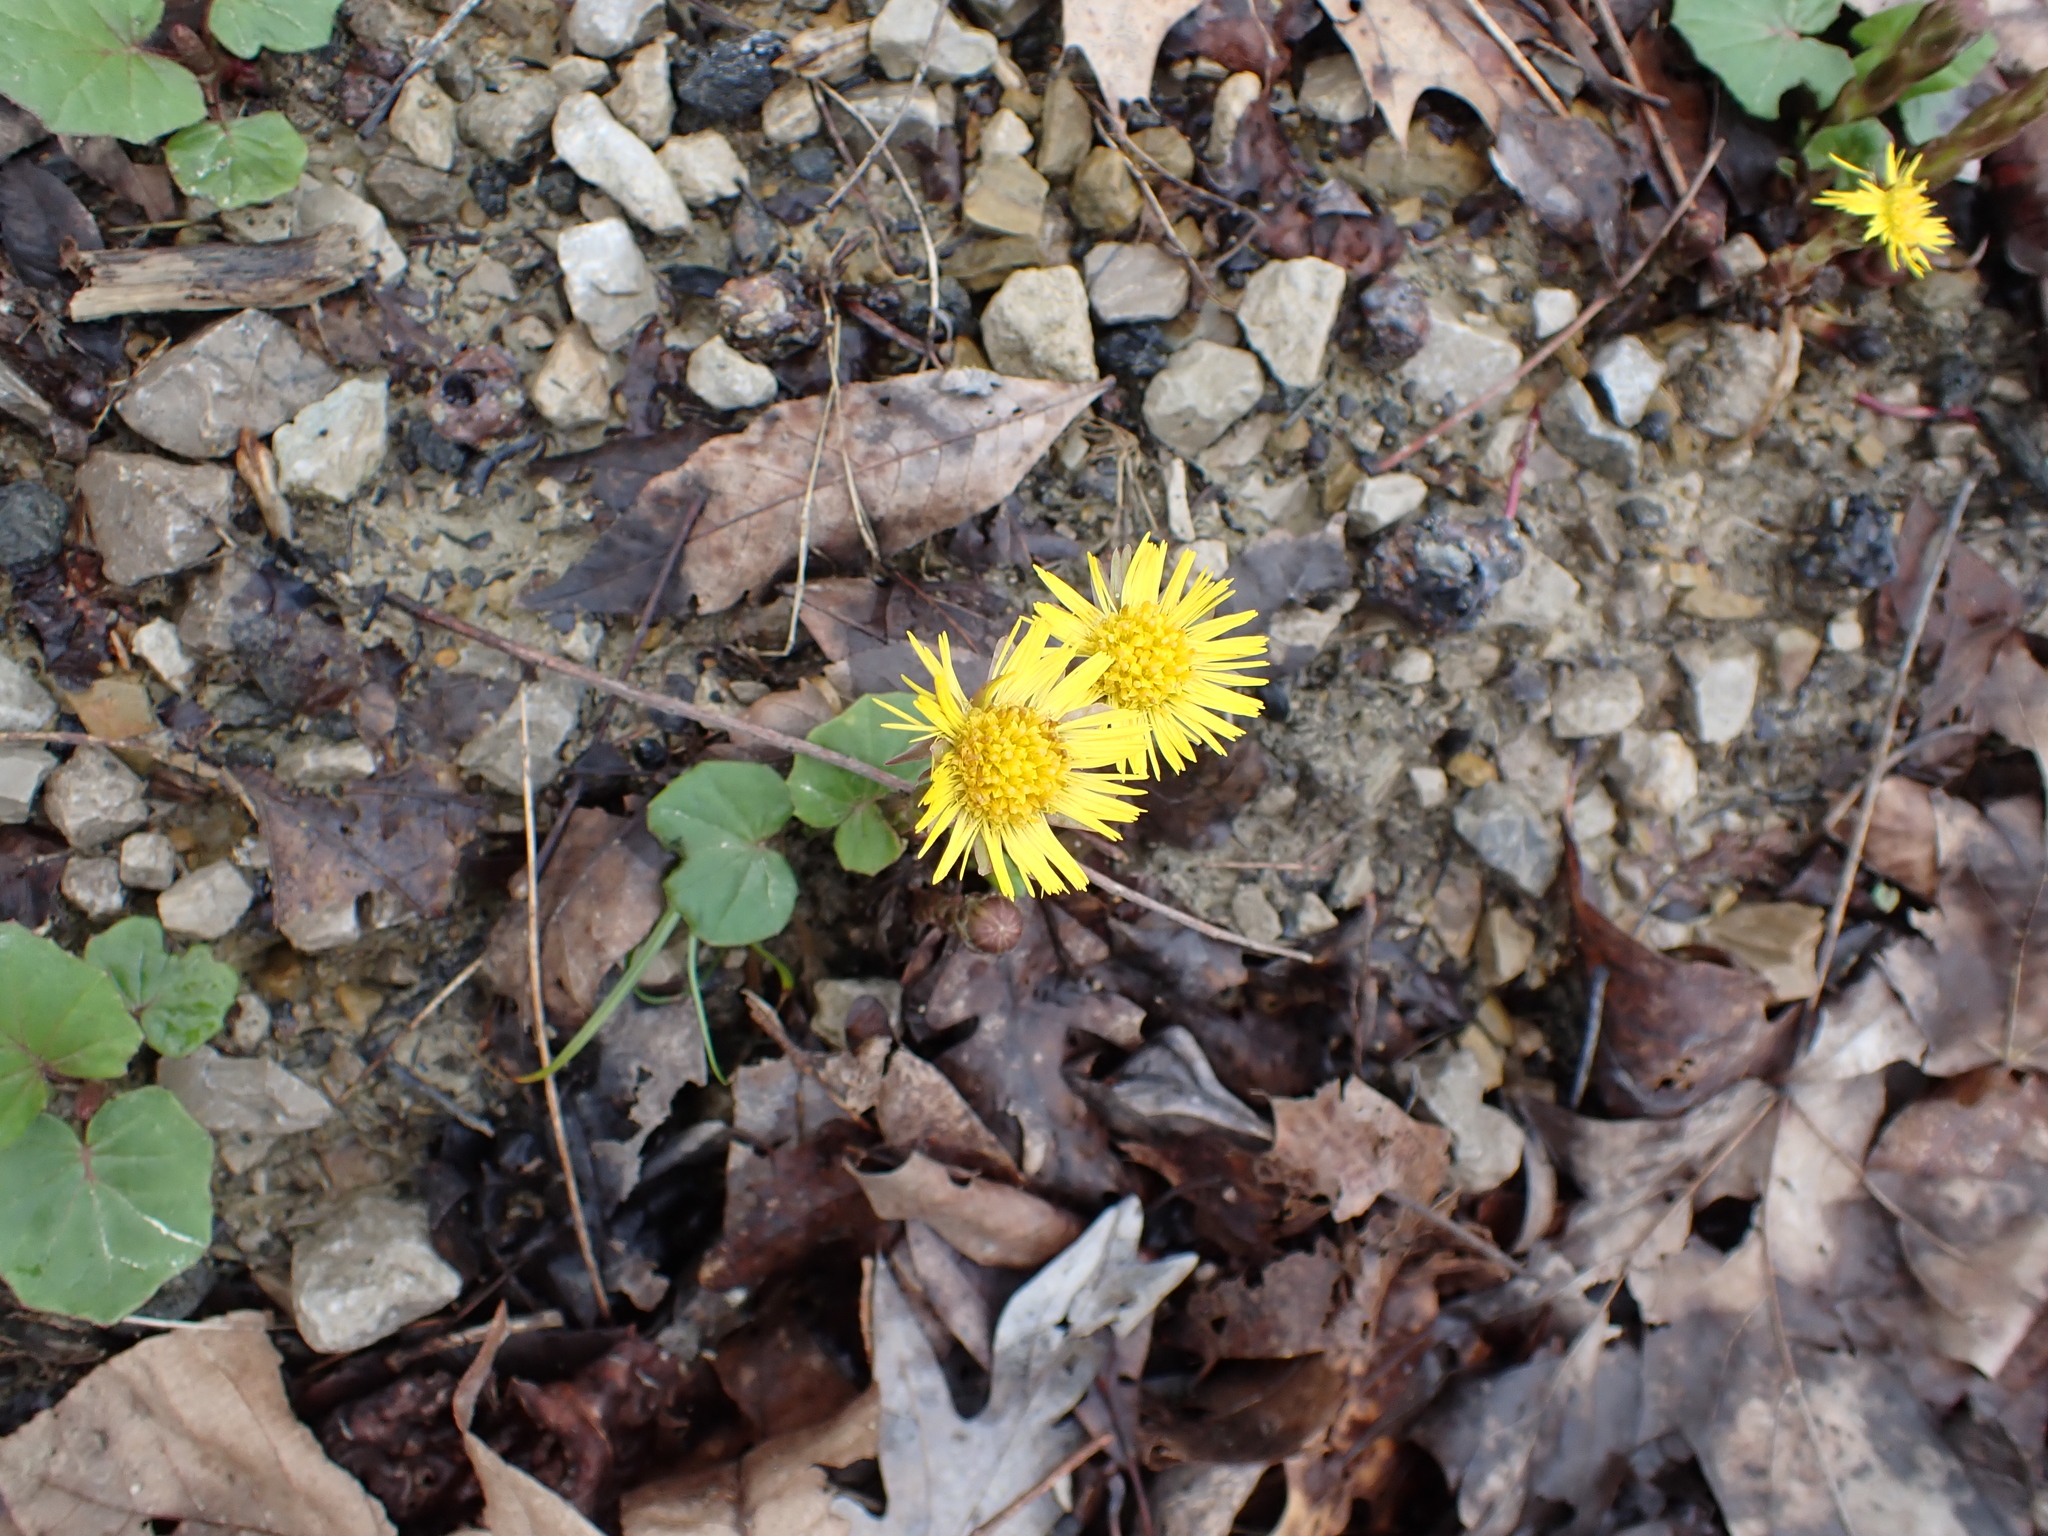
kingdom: Plantae
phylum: Tracheophyta
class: Magnoliopsida
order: Asterales
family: Asteraceae
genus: Tussilago
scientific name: Tussilago farfara
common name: Coltsfoot
